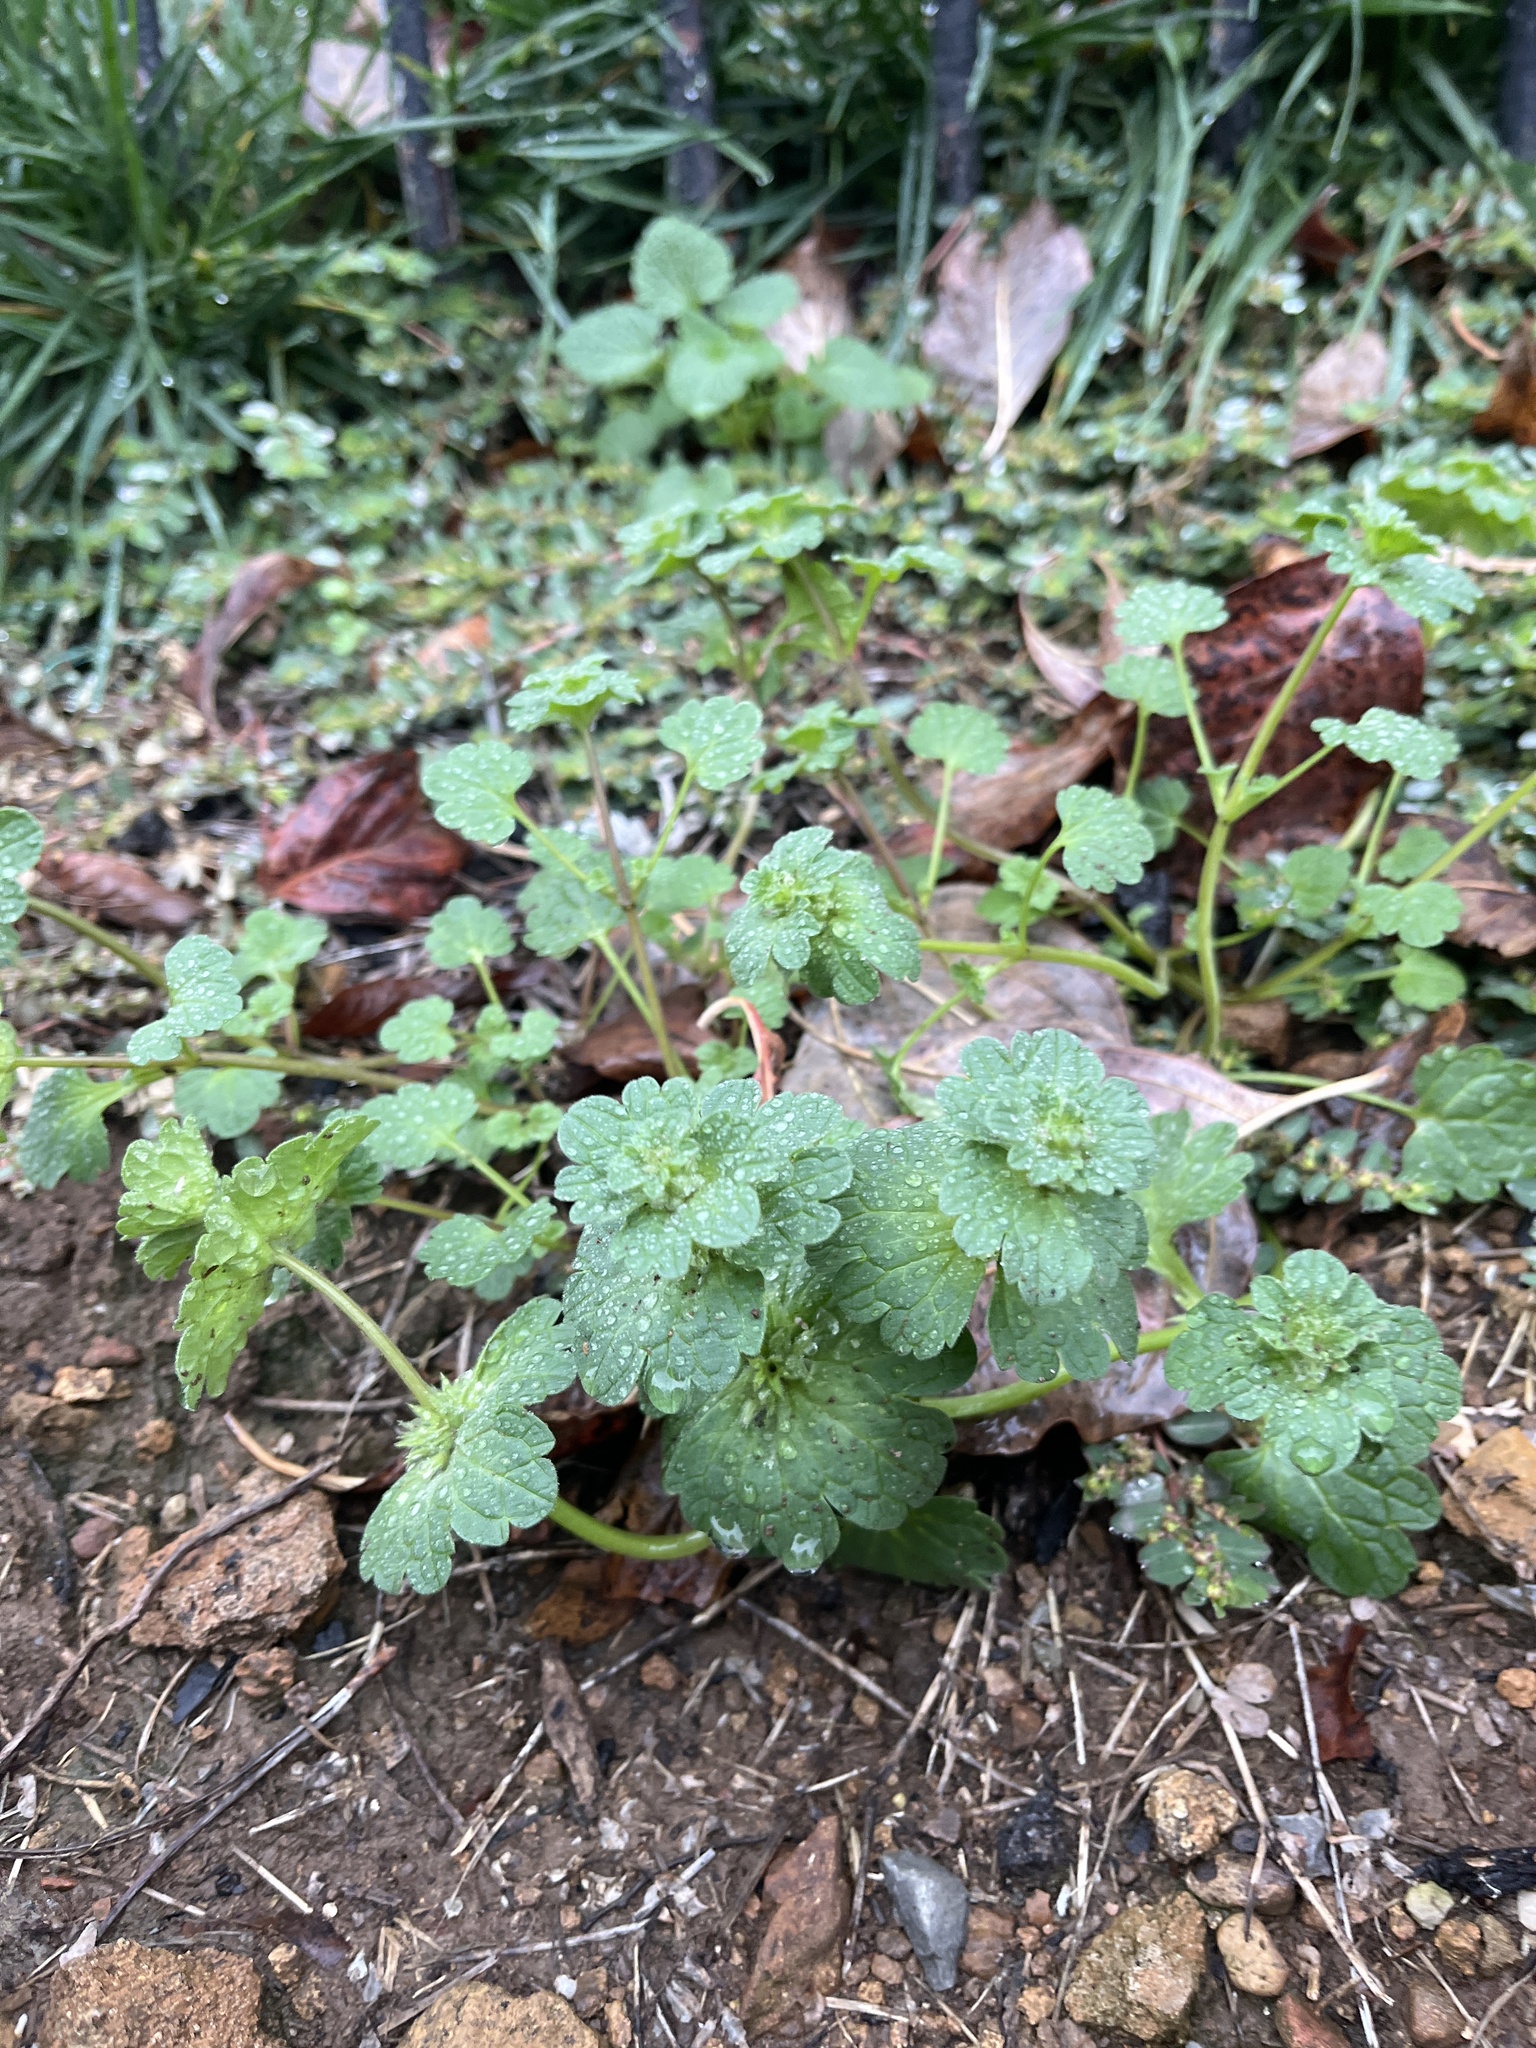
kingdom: Plantae
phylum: Tracheophyta
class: Magnoliopsida
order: Lamiales
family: Lamiaceae
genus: Lamium
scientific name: Lamium amplexicaule
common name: Henbit dead-nettle
